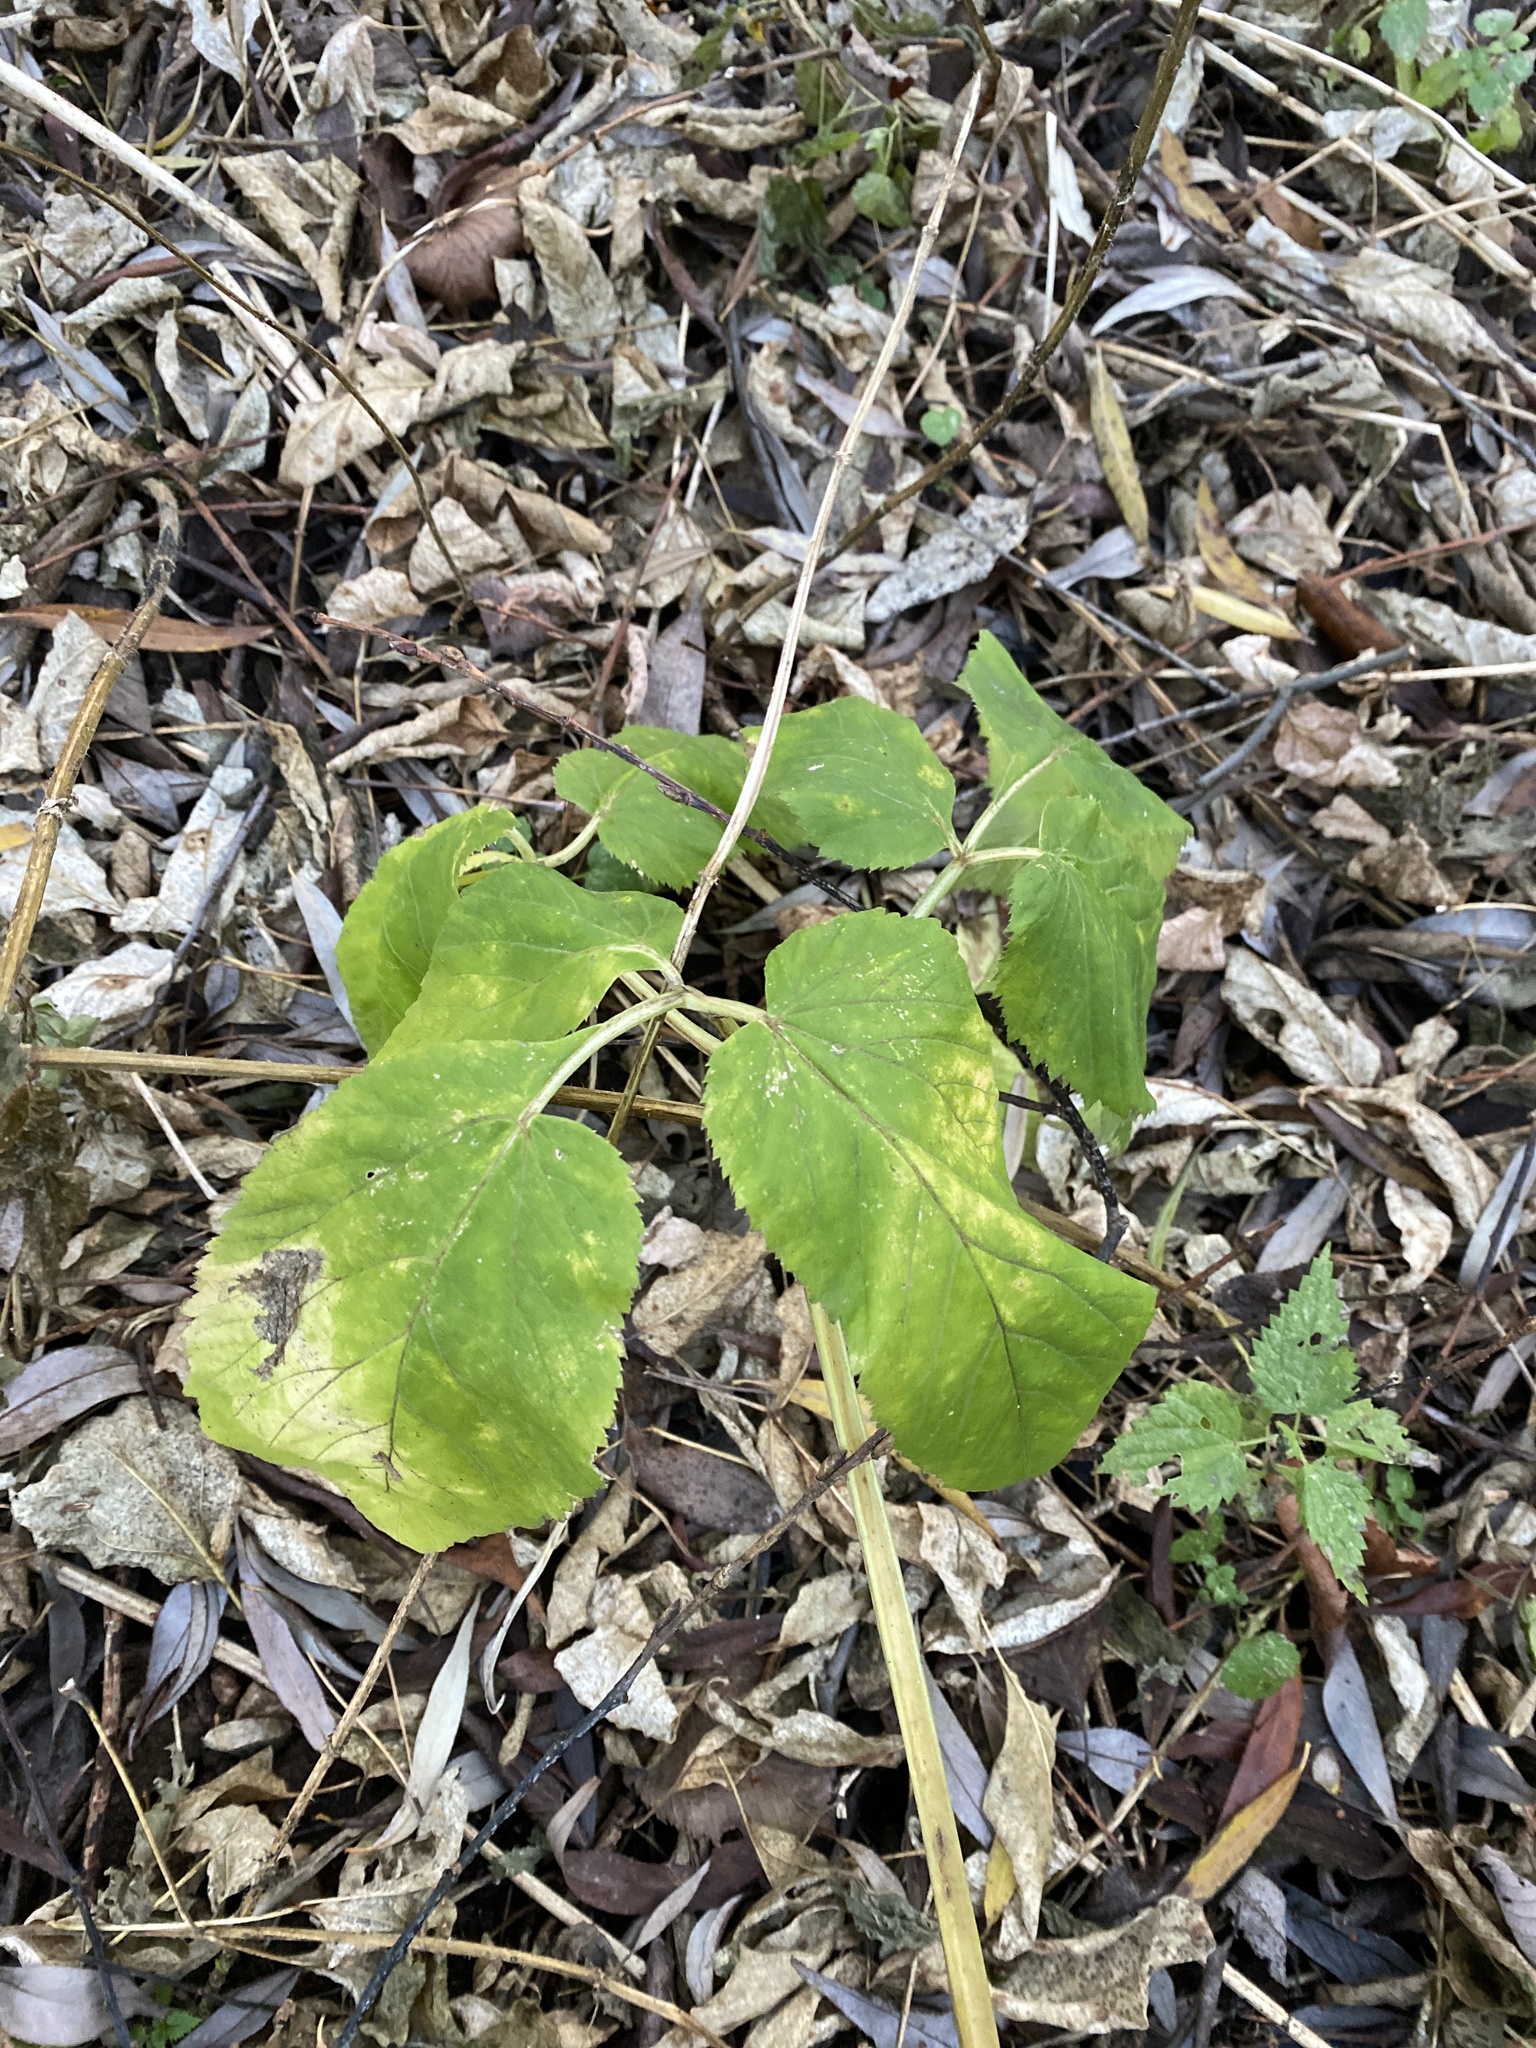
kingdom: Plantae
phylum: Tracheophyta
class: Magnoliopsida
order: Apiales
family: Apiaceae
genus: Aegopodium
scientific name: Aegopodium podagraria
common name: Ground-elder
